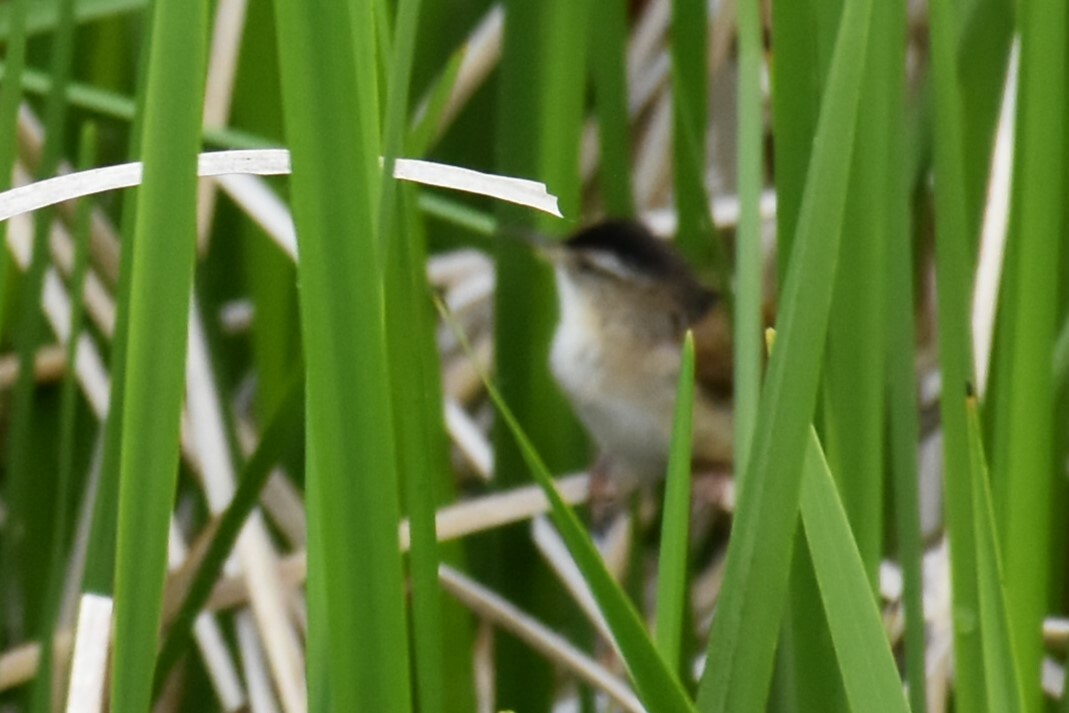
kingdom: Animalia
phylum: Chordata
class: Aves
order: Passeriformes
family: Troglodytidae
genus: Cistothorus
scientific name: Cistothorus palustris
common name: Marsh wren
